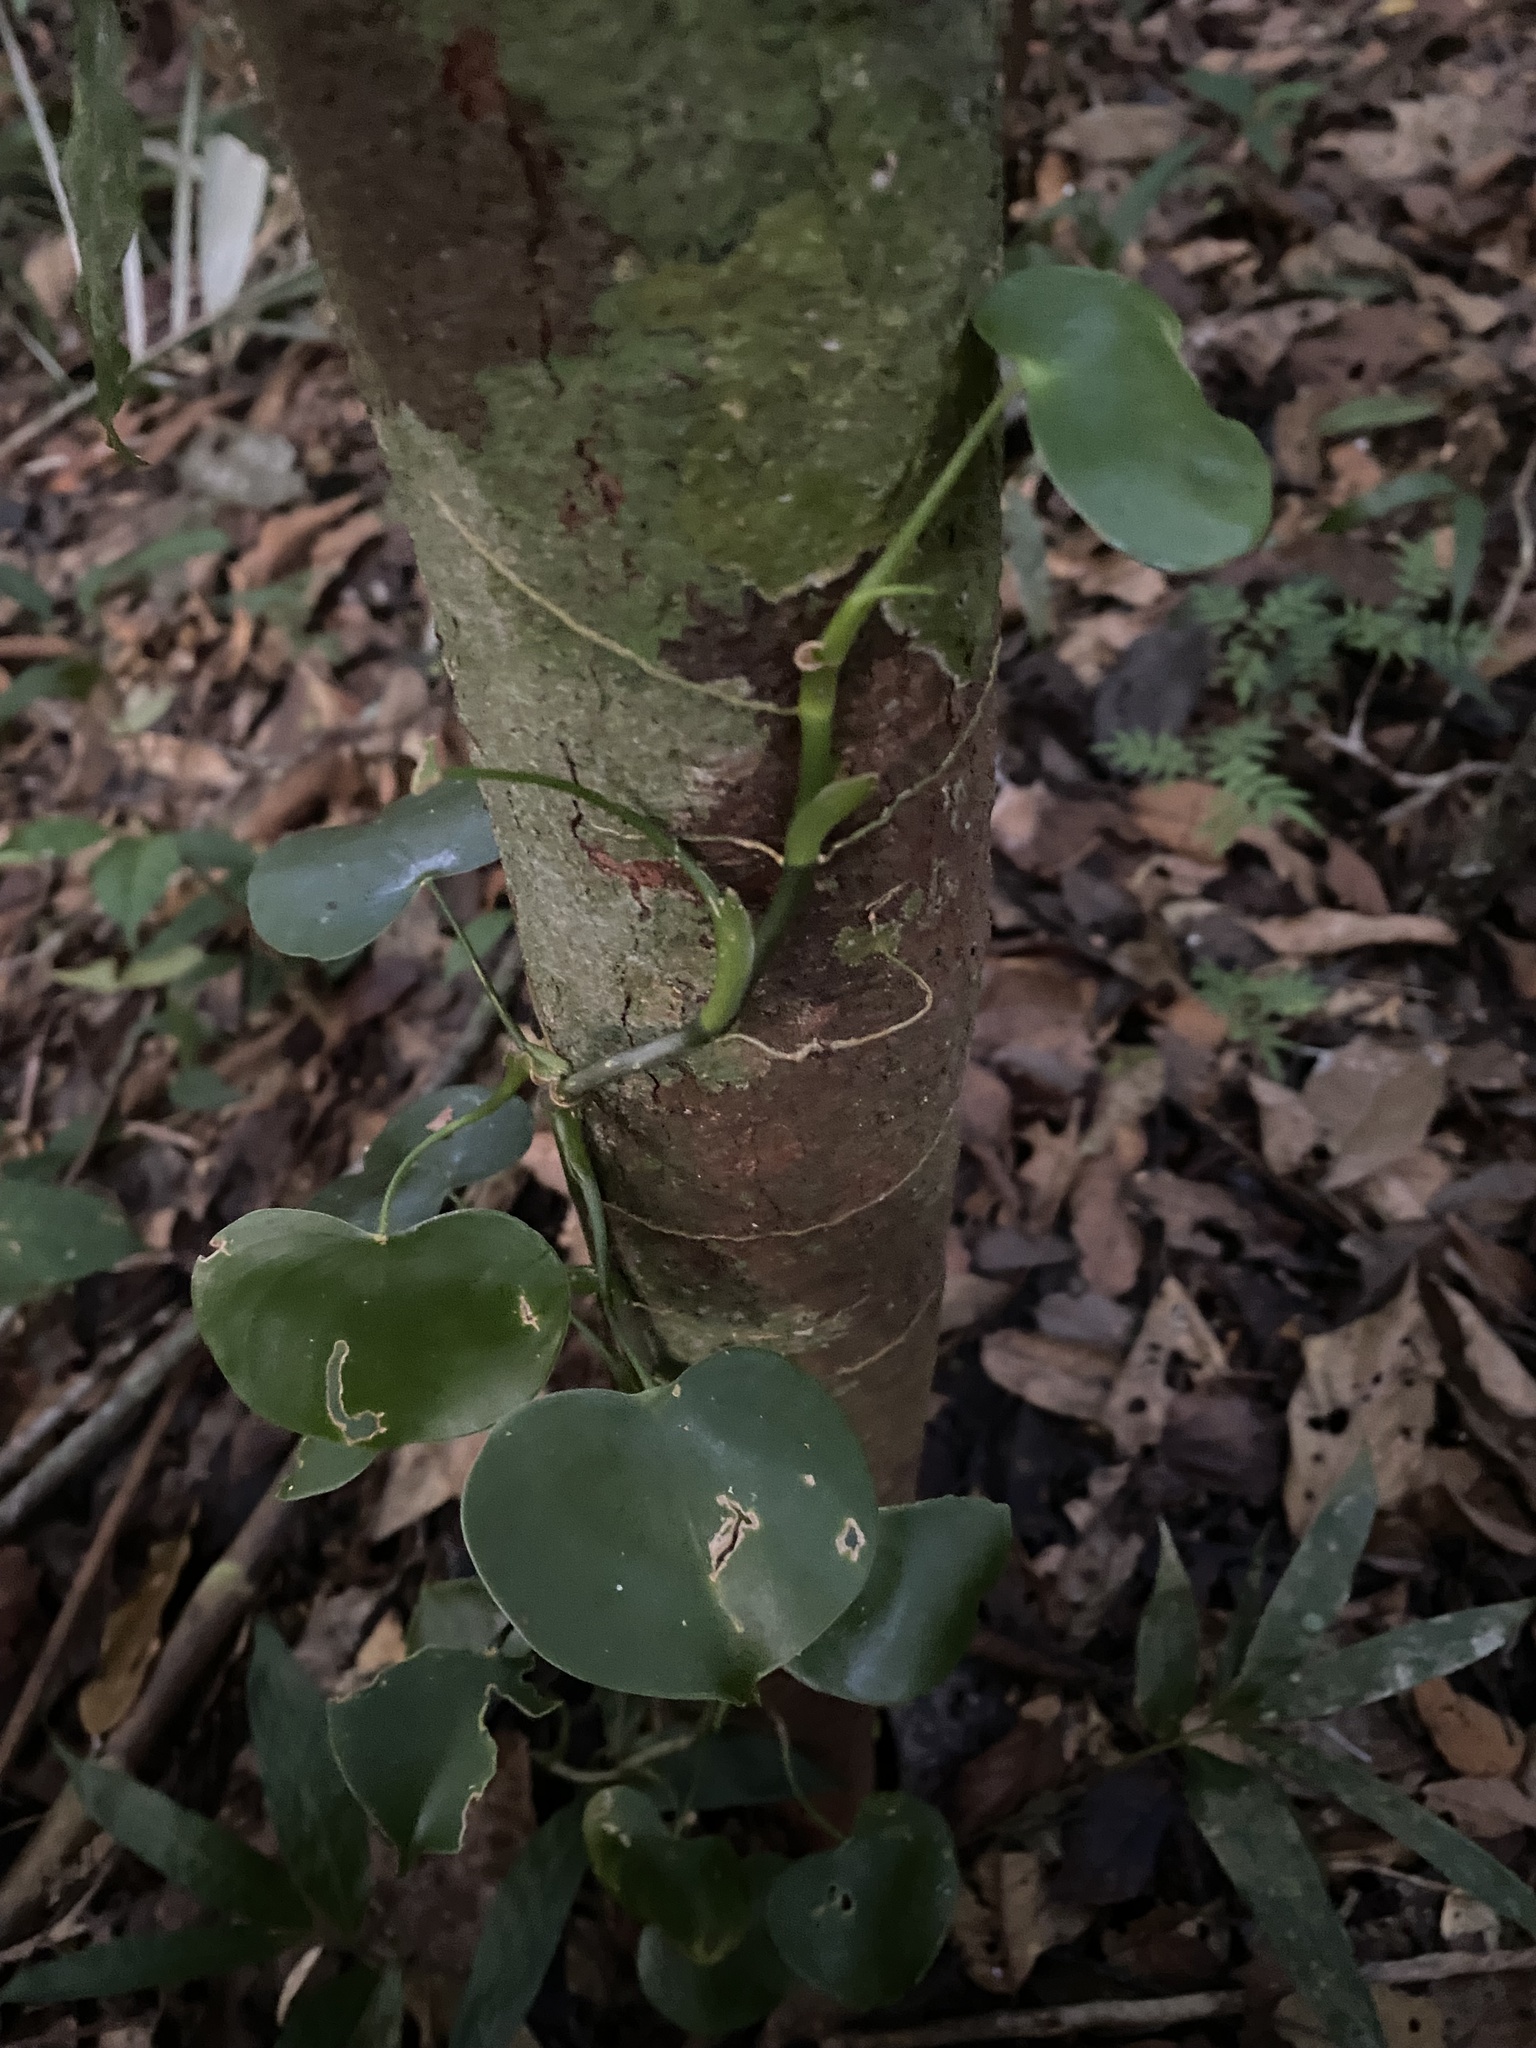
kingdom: Plantae
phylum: Tracheophyta
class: Liliopsida
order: Alismatales
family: Araceae
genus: Philodendron
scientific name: Philodendron grazielae
